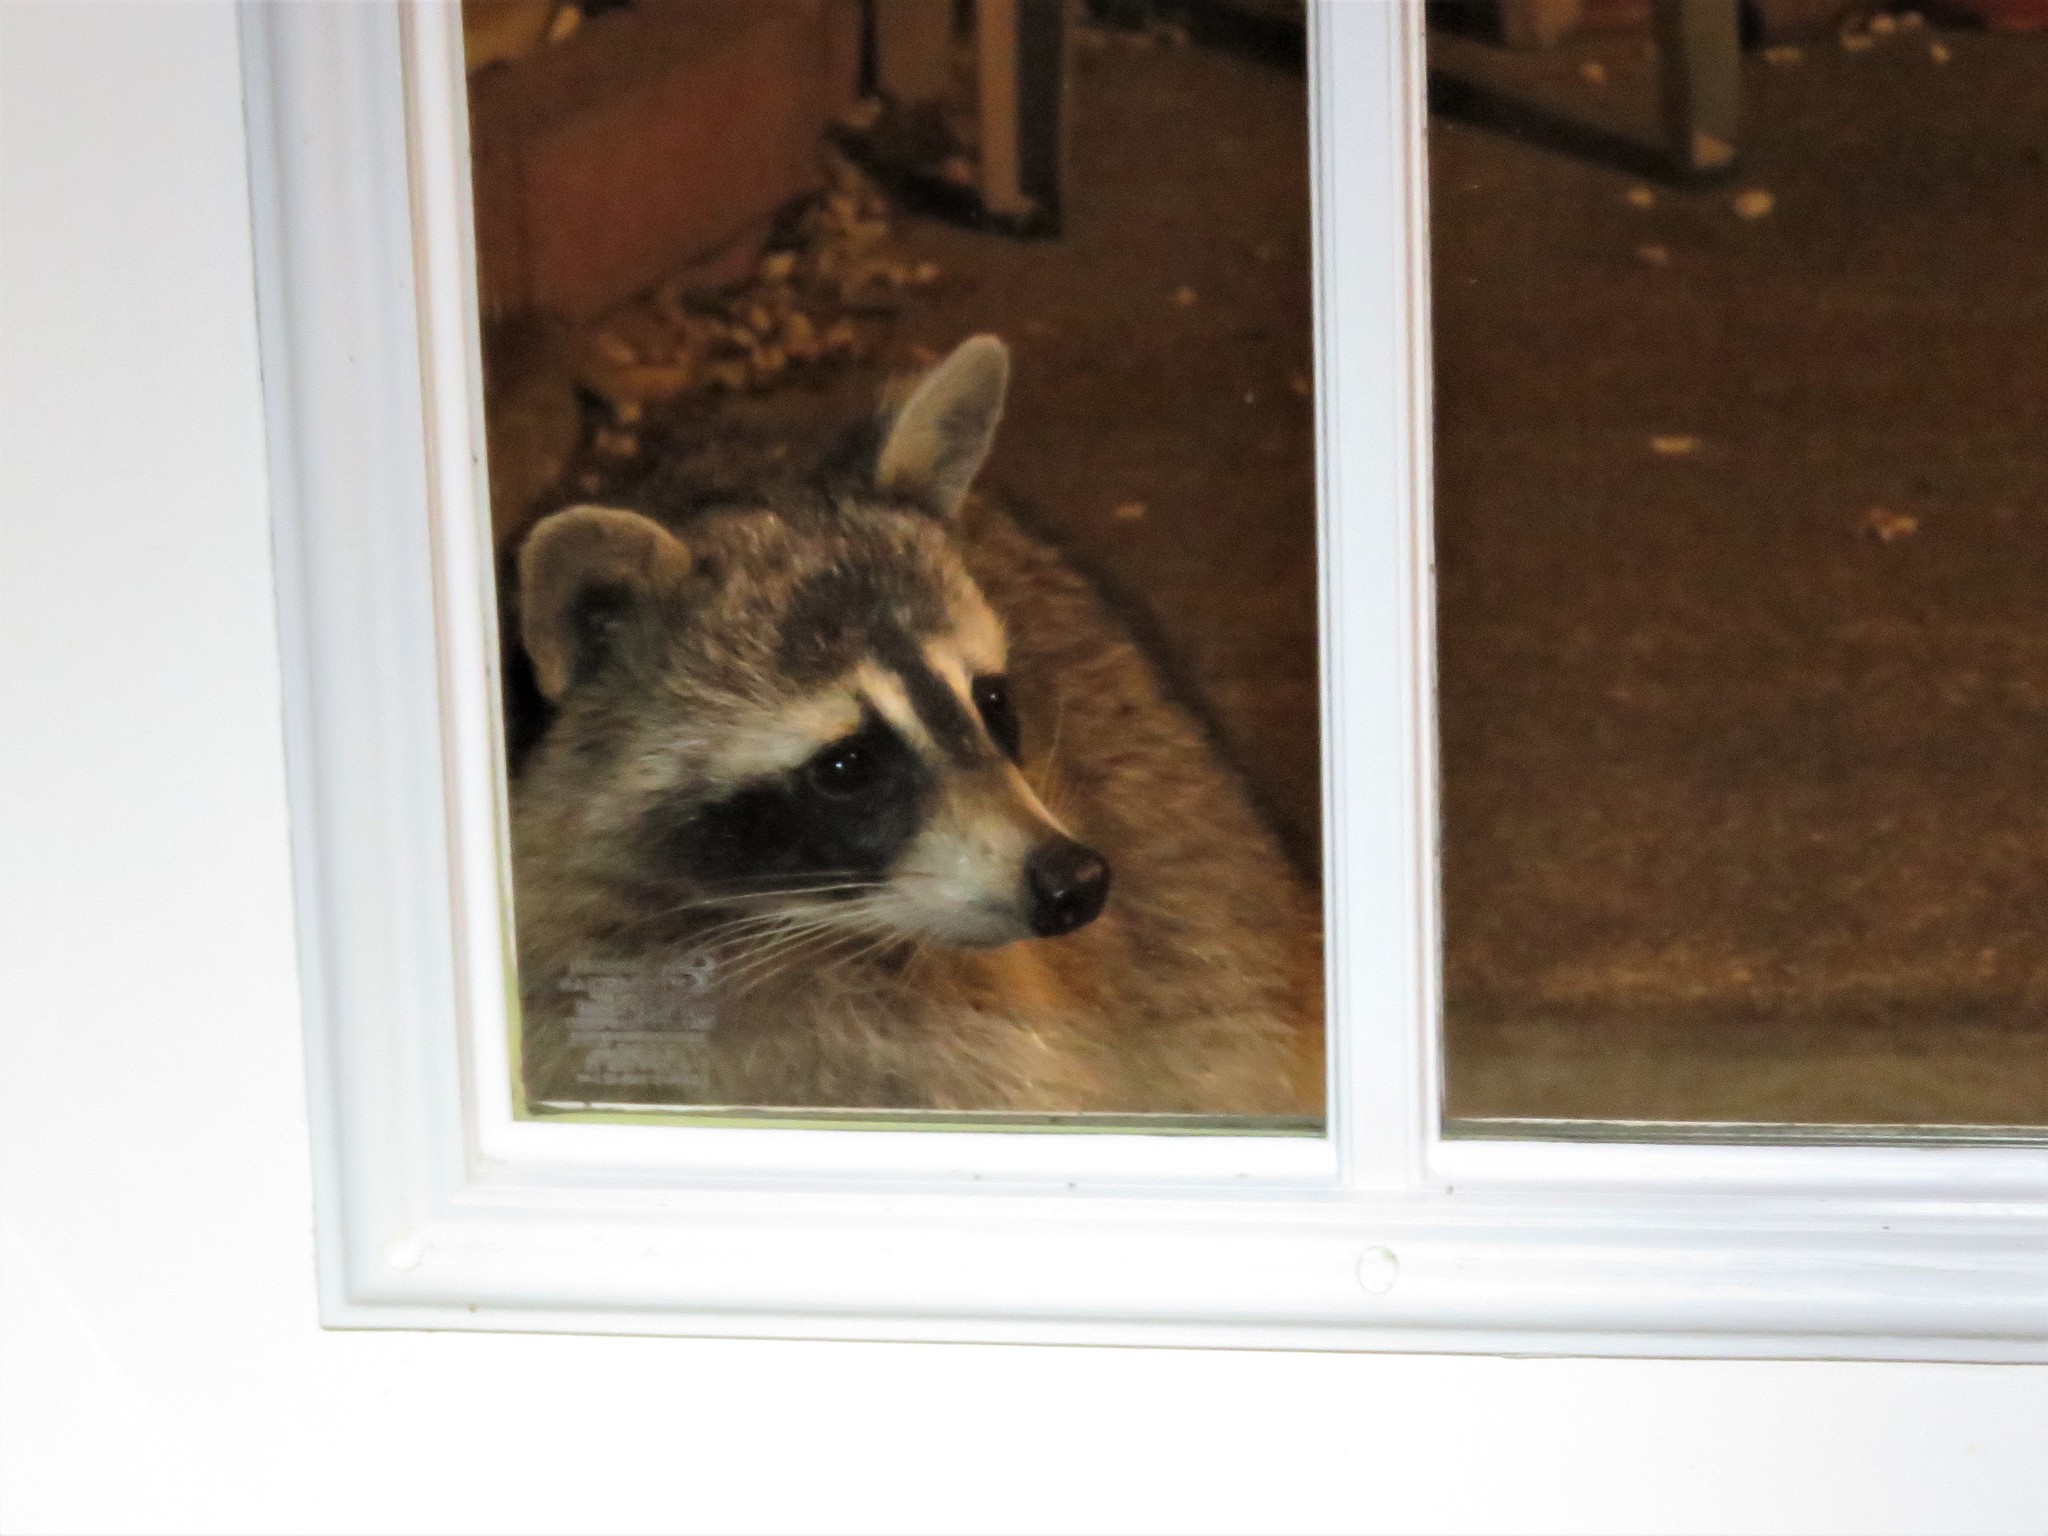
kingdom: Animalia
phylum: Chordata
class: Mammalia
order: Carnivora
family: Procyonidae
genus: Procyon
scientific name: Procyon lotor
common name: Raccoon
